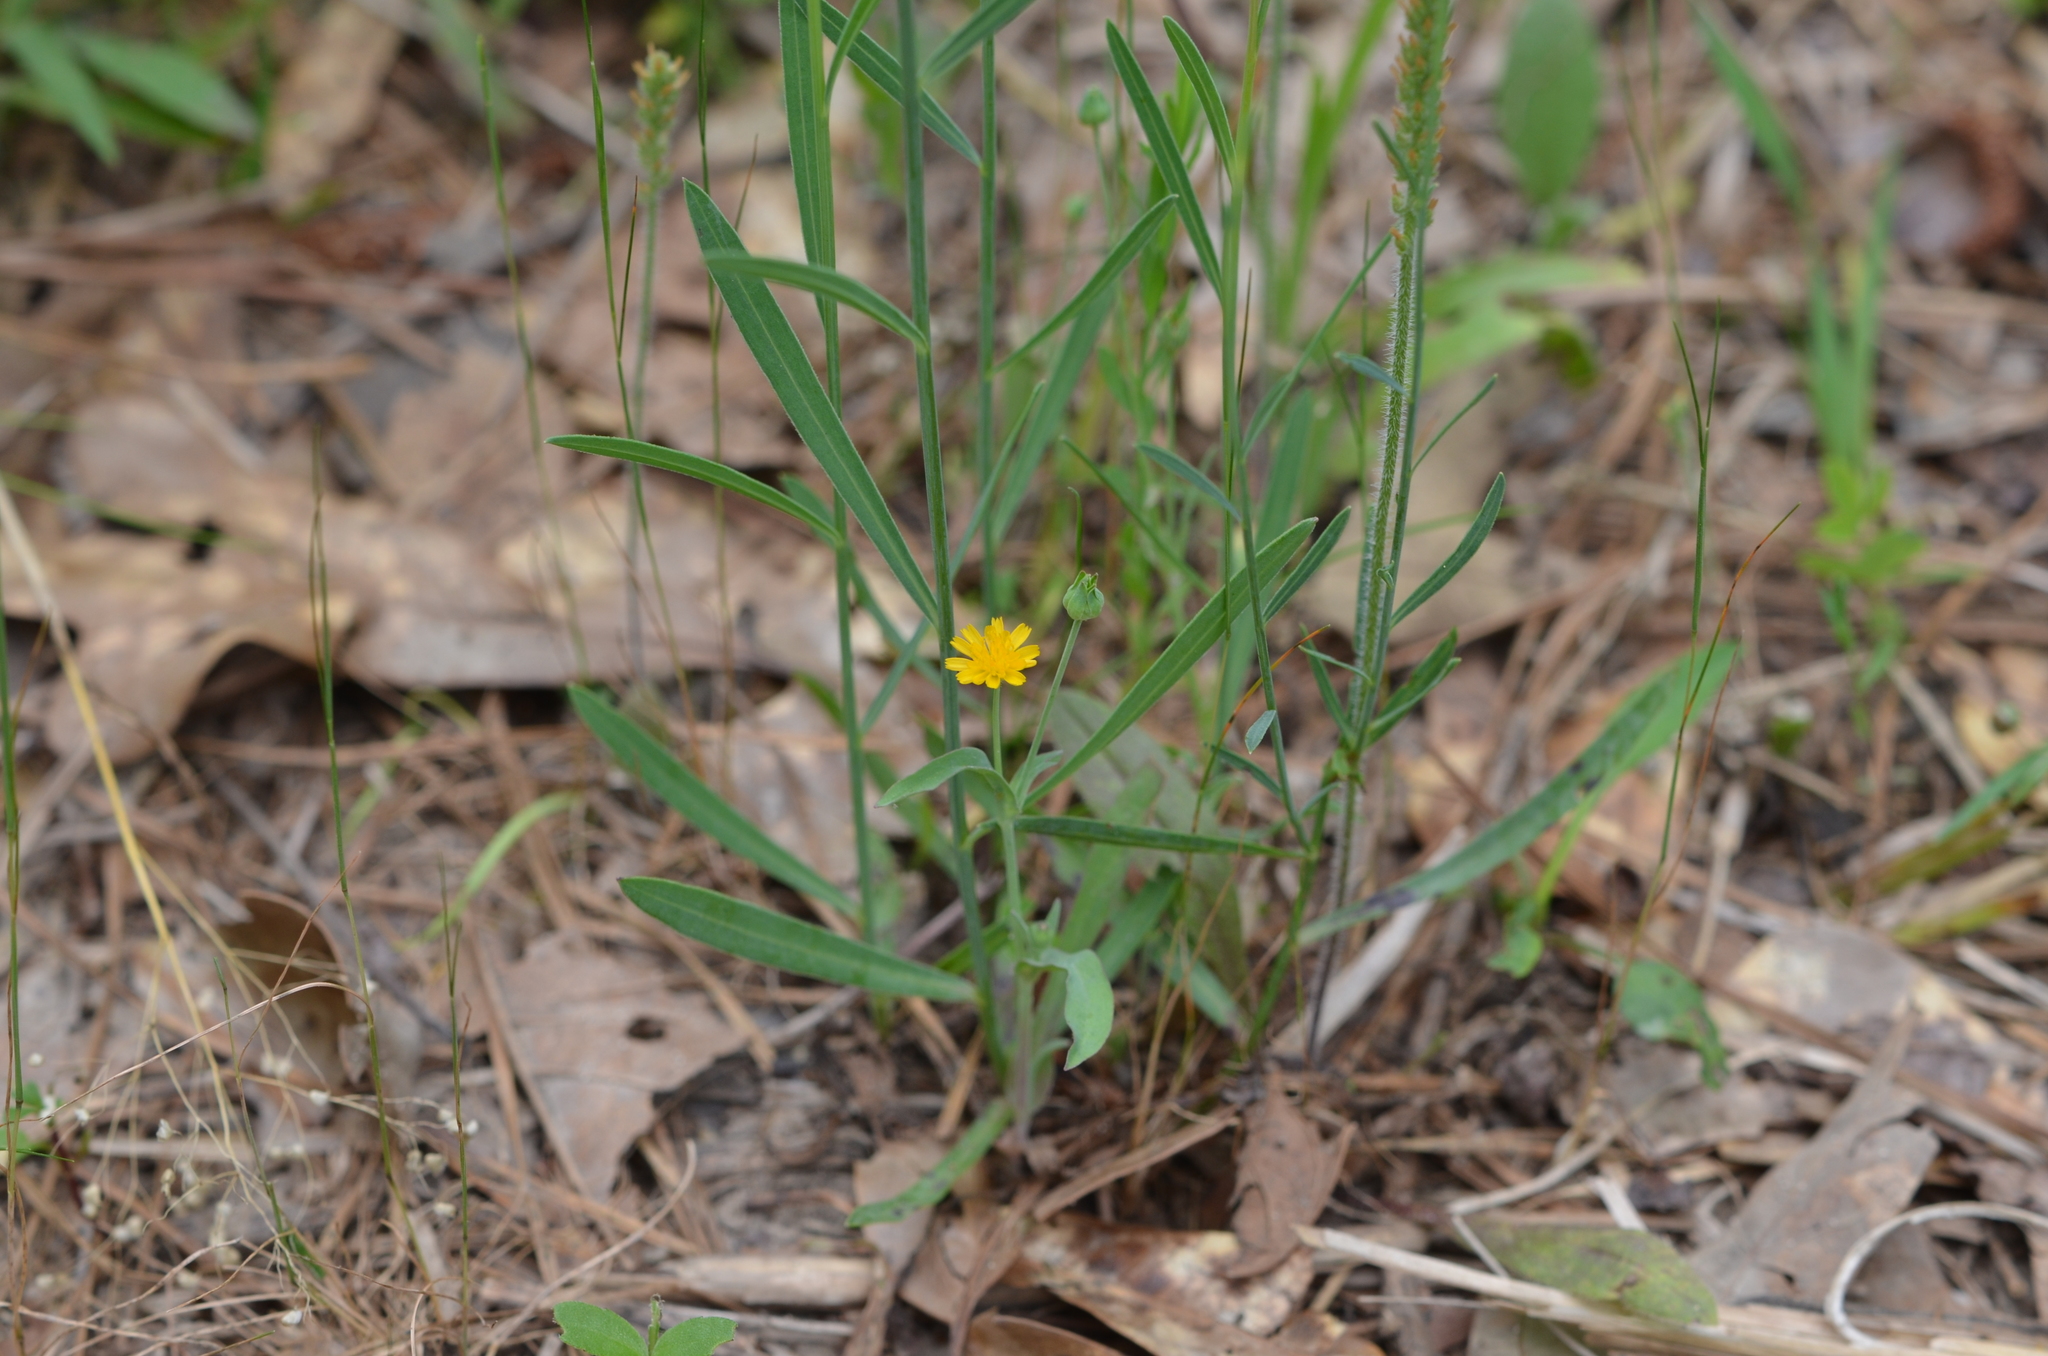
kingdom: Plantae
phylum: Tracheophyta
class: Magnoliopsida
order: Asterales
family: Asteraceae
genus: Krigia
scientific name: Krigia cespitosa
